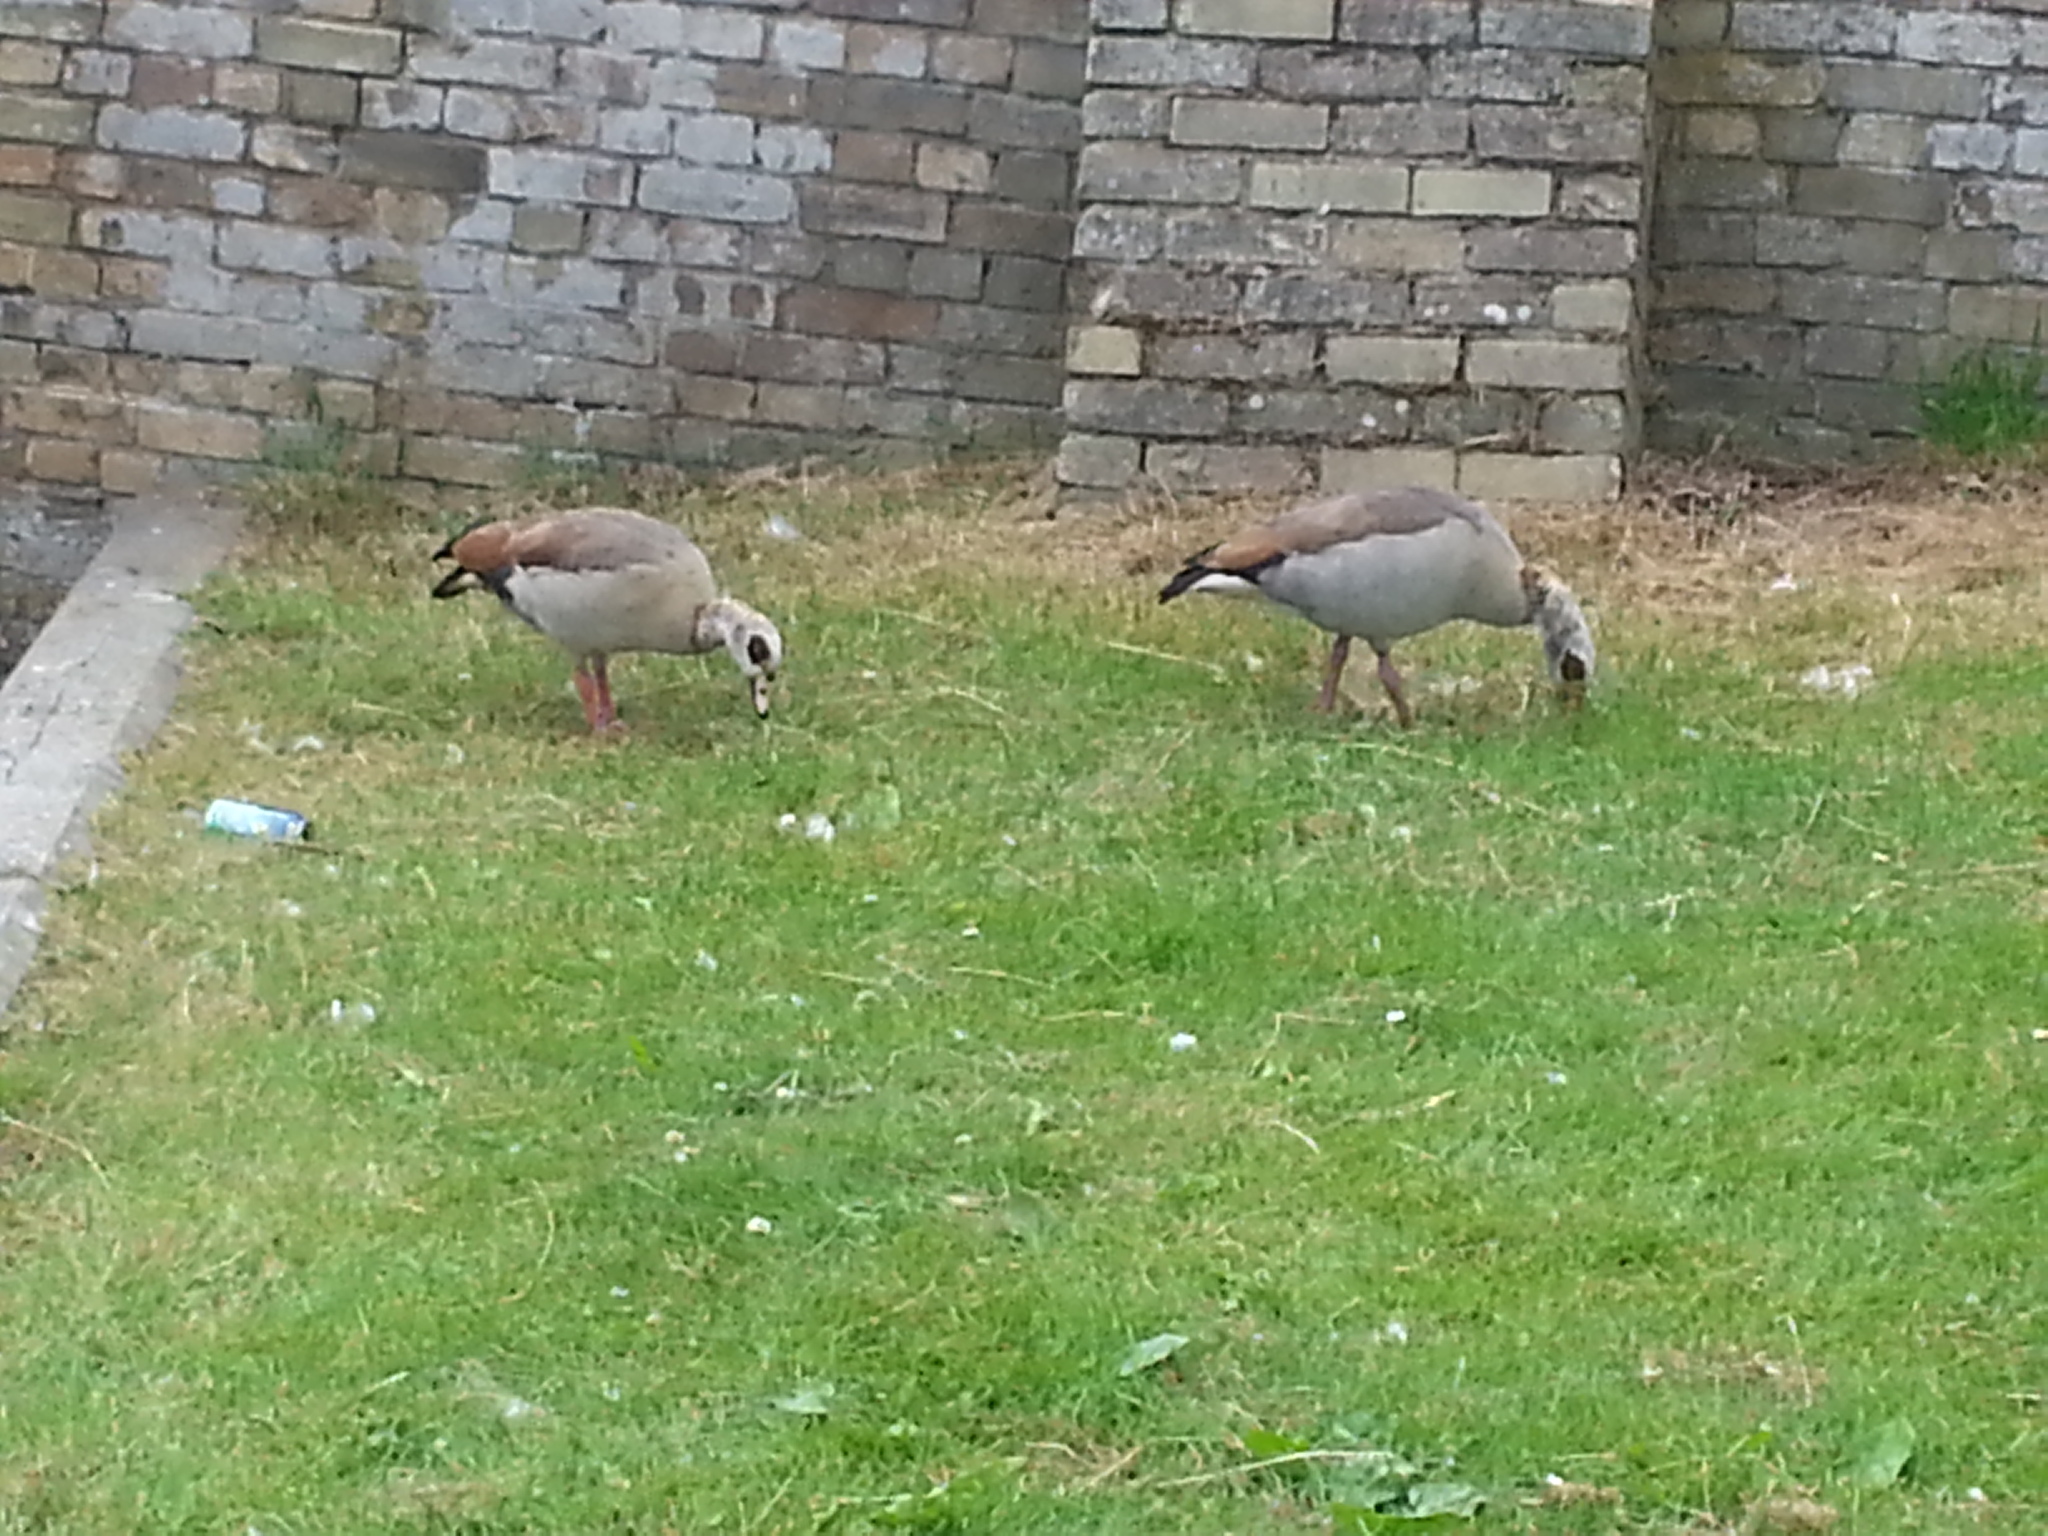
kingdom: Animalia
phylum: Chordata
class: Aves
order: Anseriformes
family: Anatidae
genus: Alopochen
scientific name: Alopochen aegyptiaca
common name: Egyptian goose
